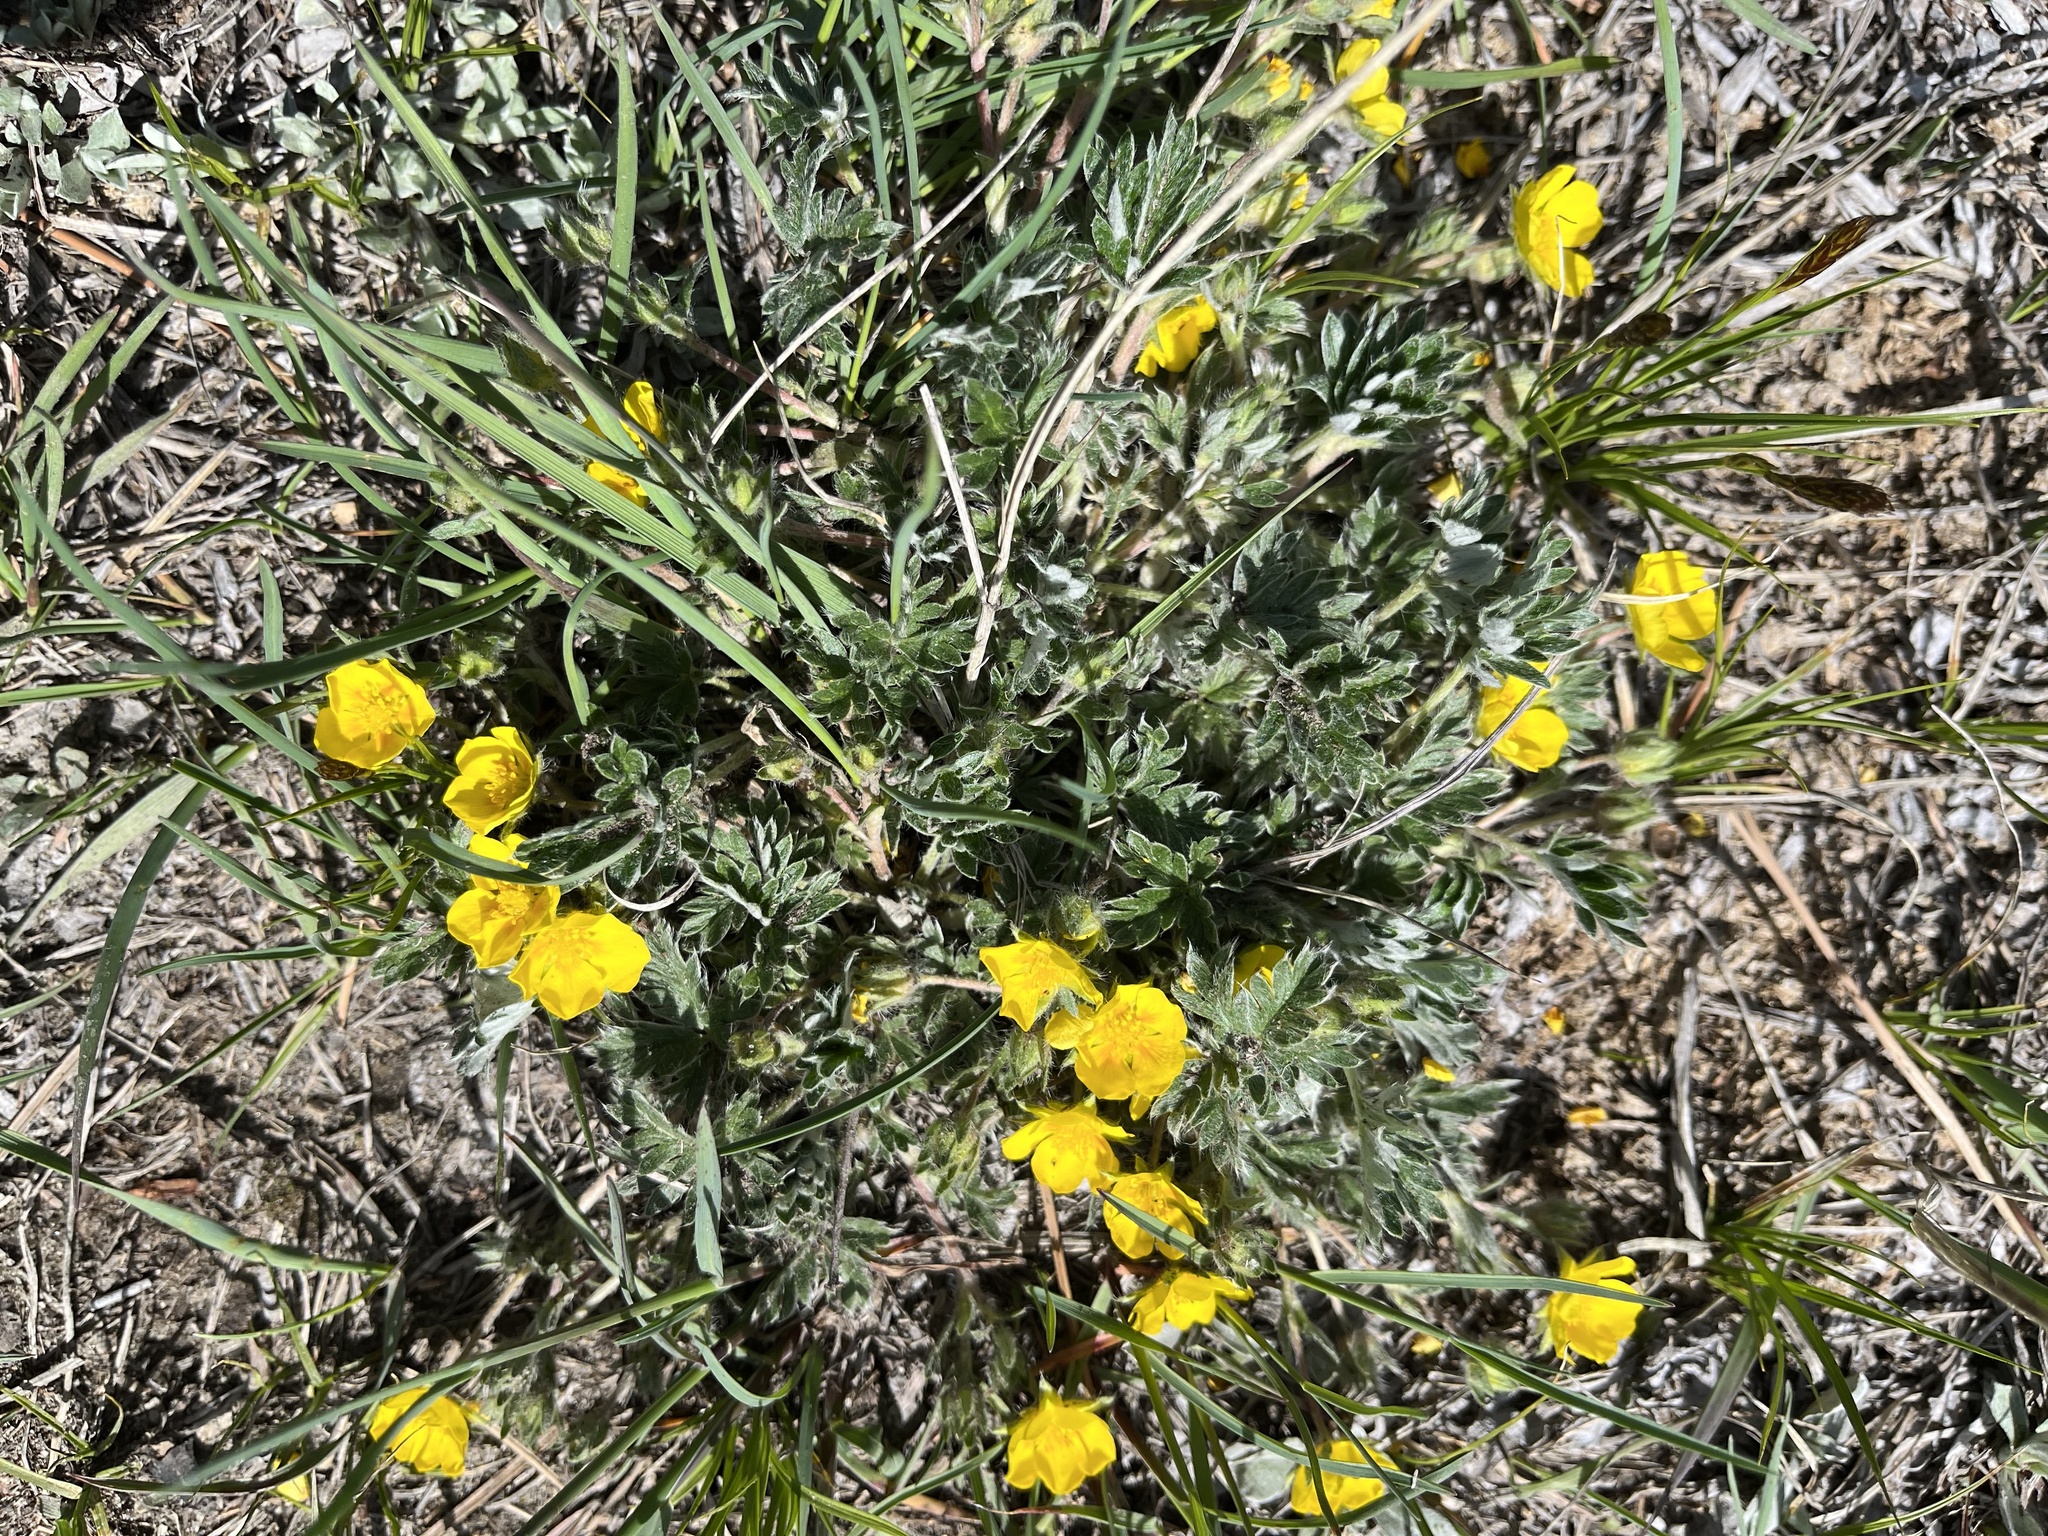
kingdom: Plantae
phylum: Tracheophyta
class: Magnoliopsida
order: Rosales
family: Rosaceae
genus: Potentilla
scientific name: Potentilla concinna
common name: Early cinquefoil
